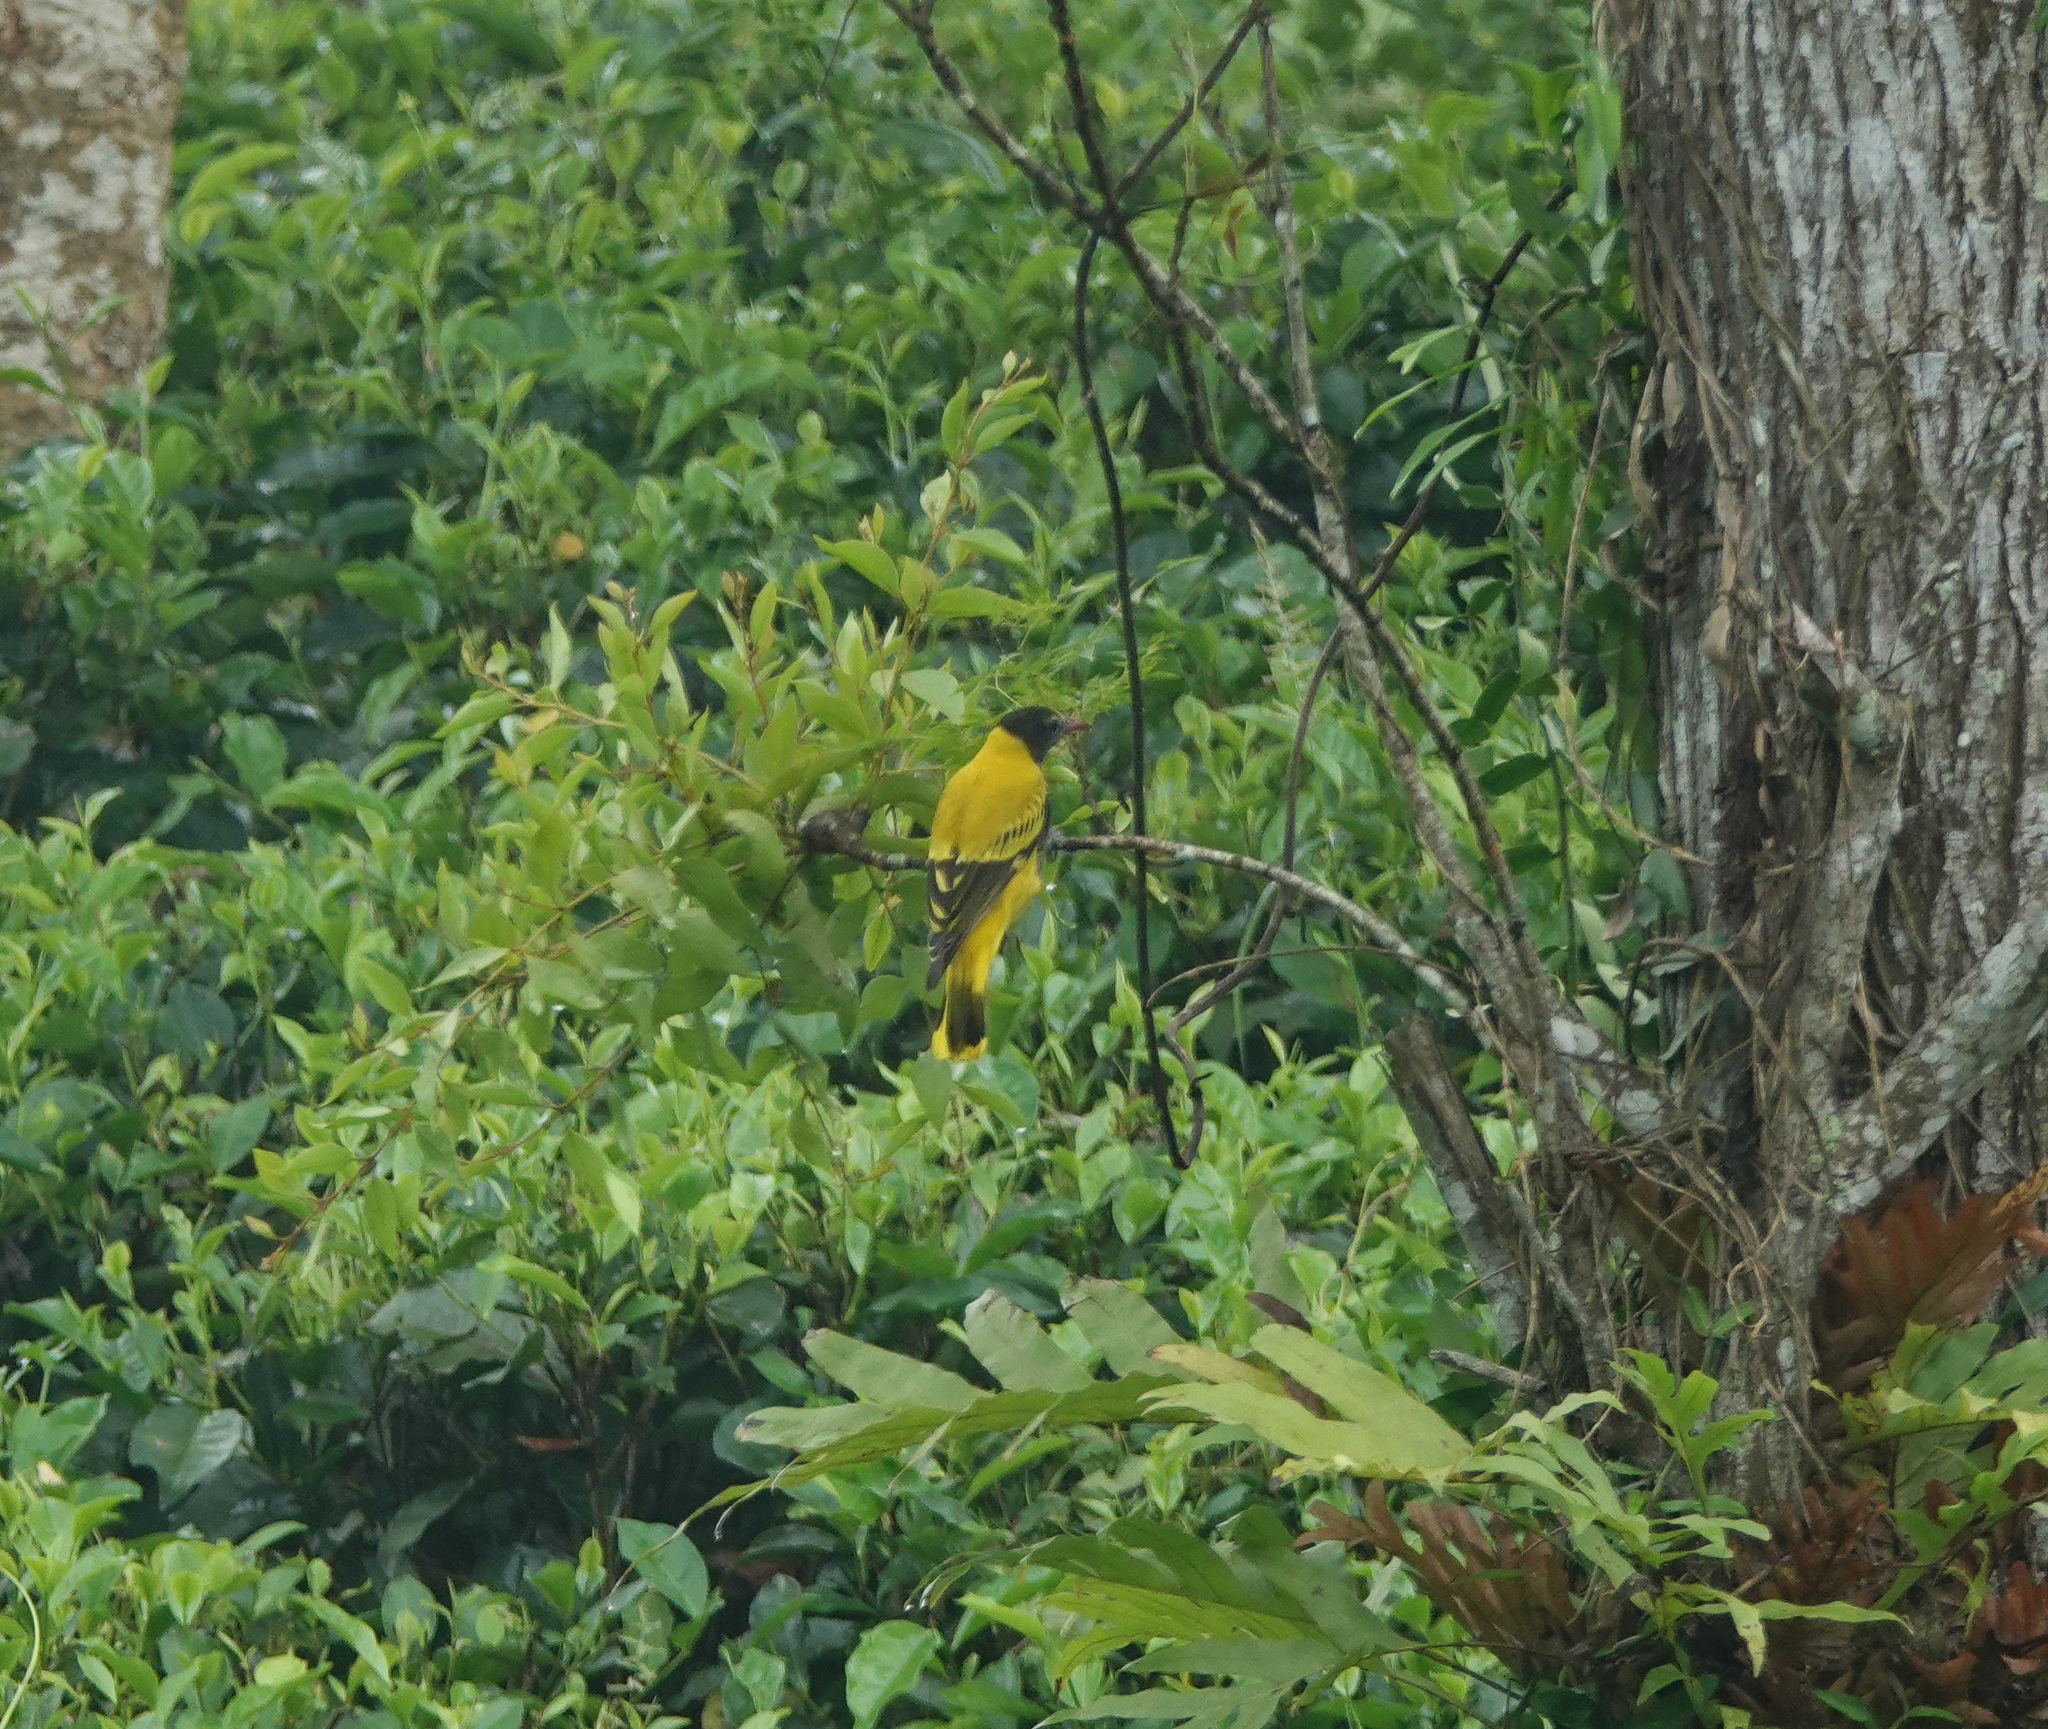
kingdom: Animalia
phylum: Chordata
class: Aves
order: Passeriformes
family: Oriolidae
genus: Oriolus
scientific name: Oriolus xanthornus
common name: Black-hooded oriole
